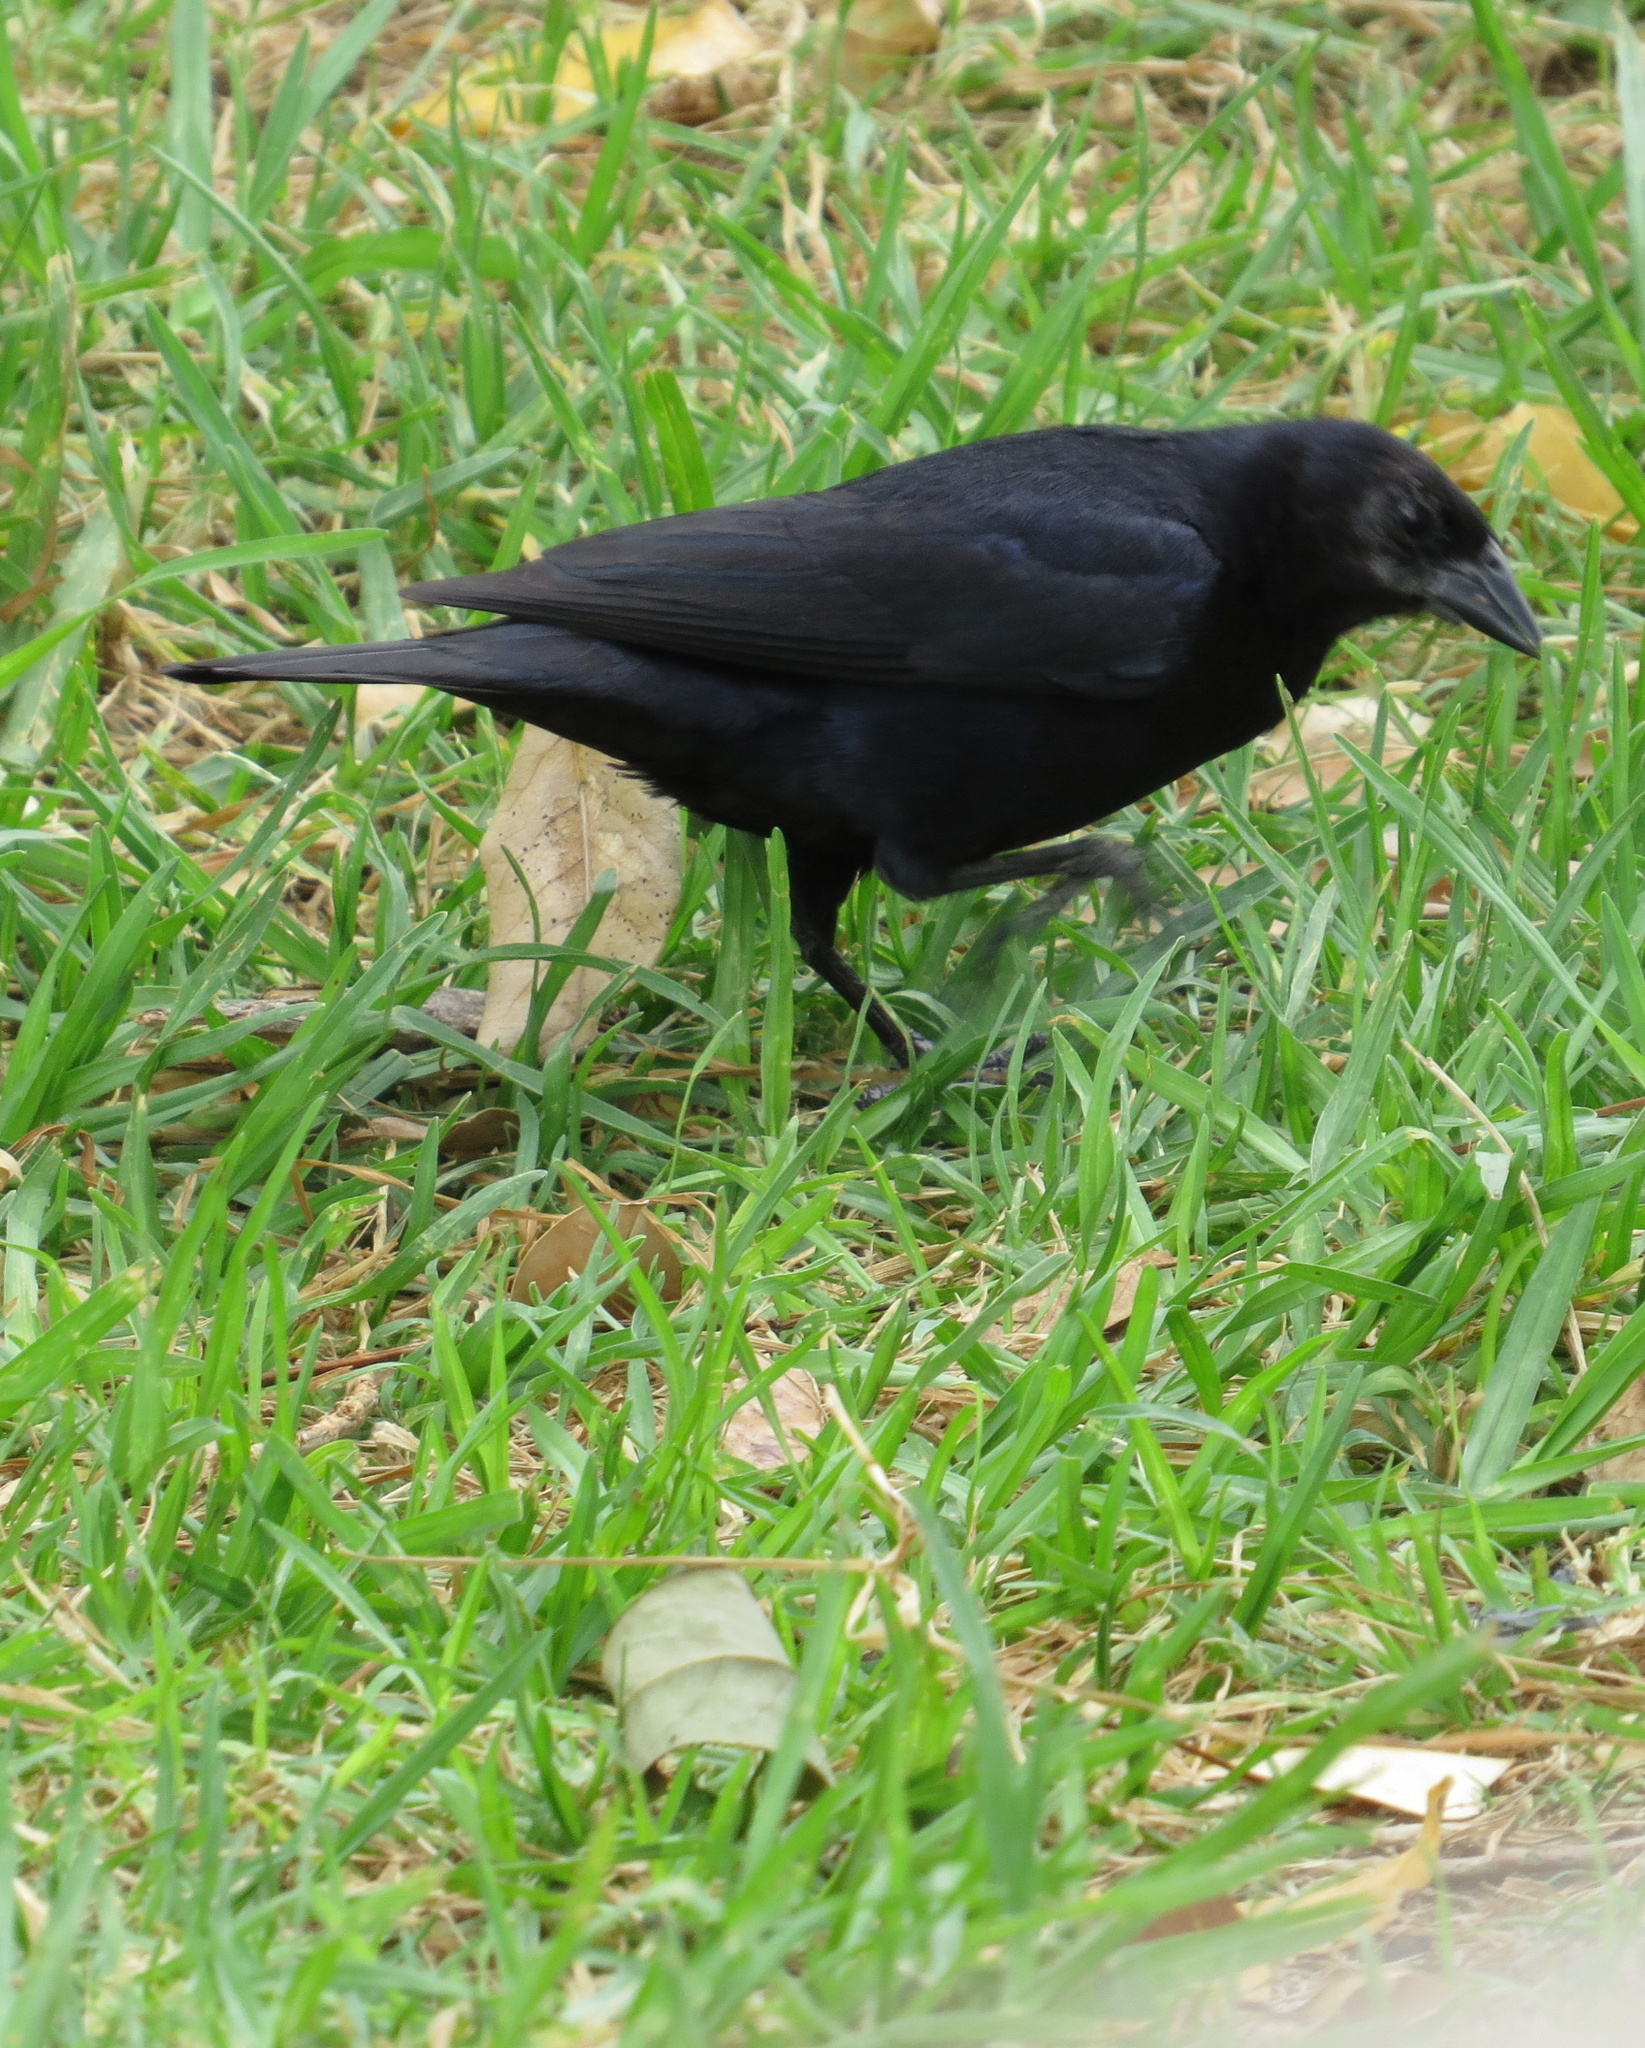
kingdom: Animalia
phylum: Chordata
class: Aves
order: Passeriformes
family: Icteridae
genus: Molothrus
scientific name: Molothrus rufoaxillaris
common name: Screaming cowbird
